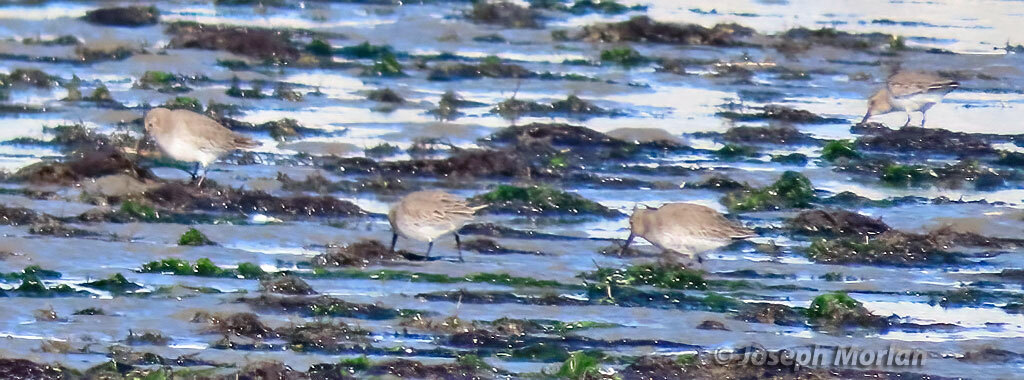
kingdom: Animalia
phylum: Chordata
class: Aves
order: Charadriiformes
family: Scolopacidae
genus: Calidris
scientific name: Calidris alpina
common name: Dunlin
